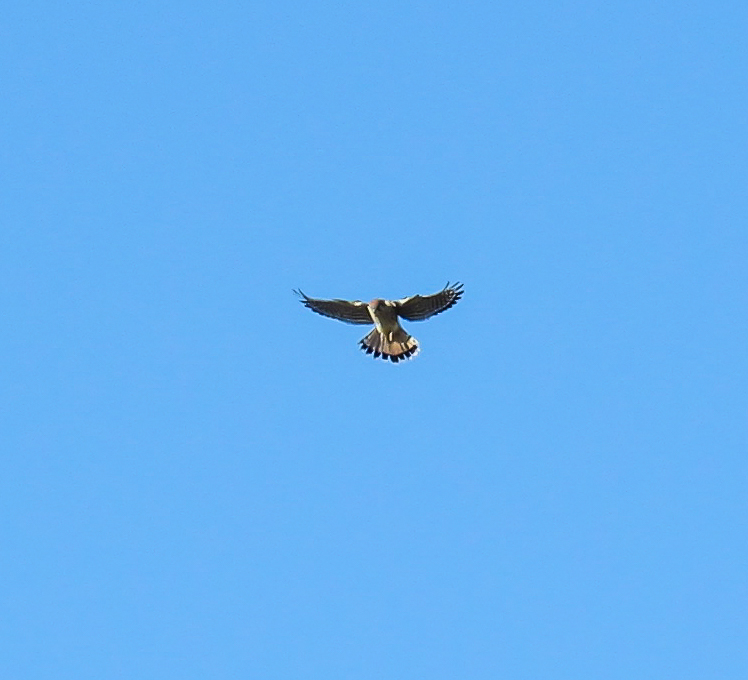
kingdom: Animalia
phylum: Chordata
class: Aves
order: Falconiformes
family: Falconidae
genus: Falco
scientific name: Falco sparverius
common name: American kestrel
